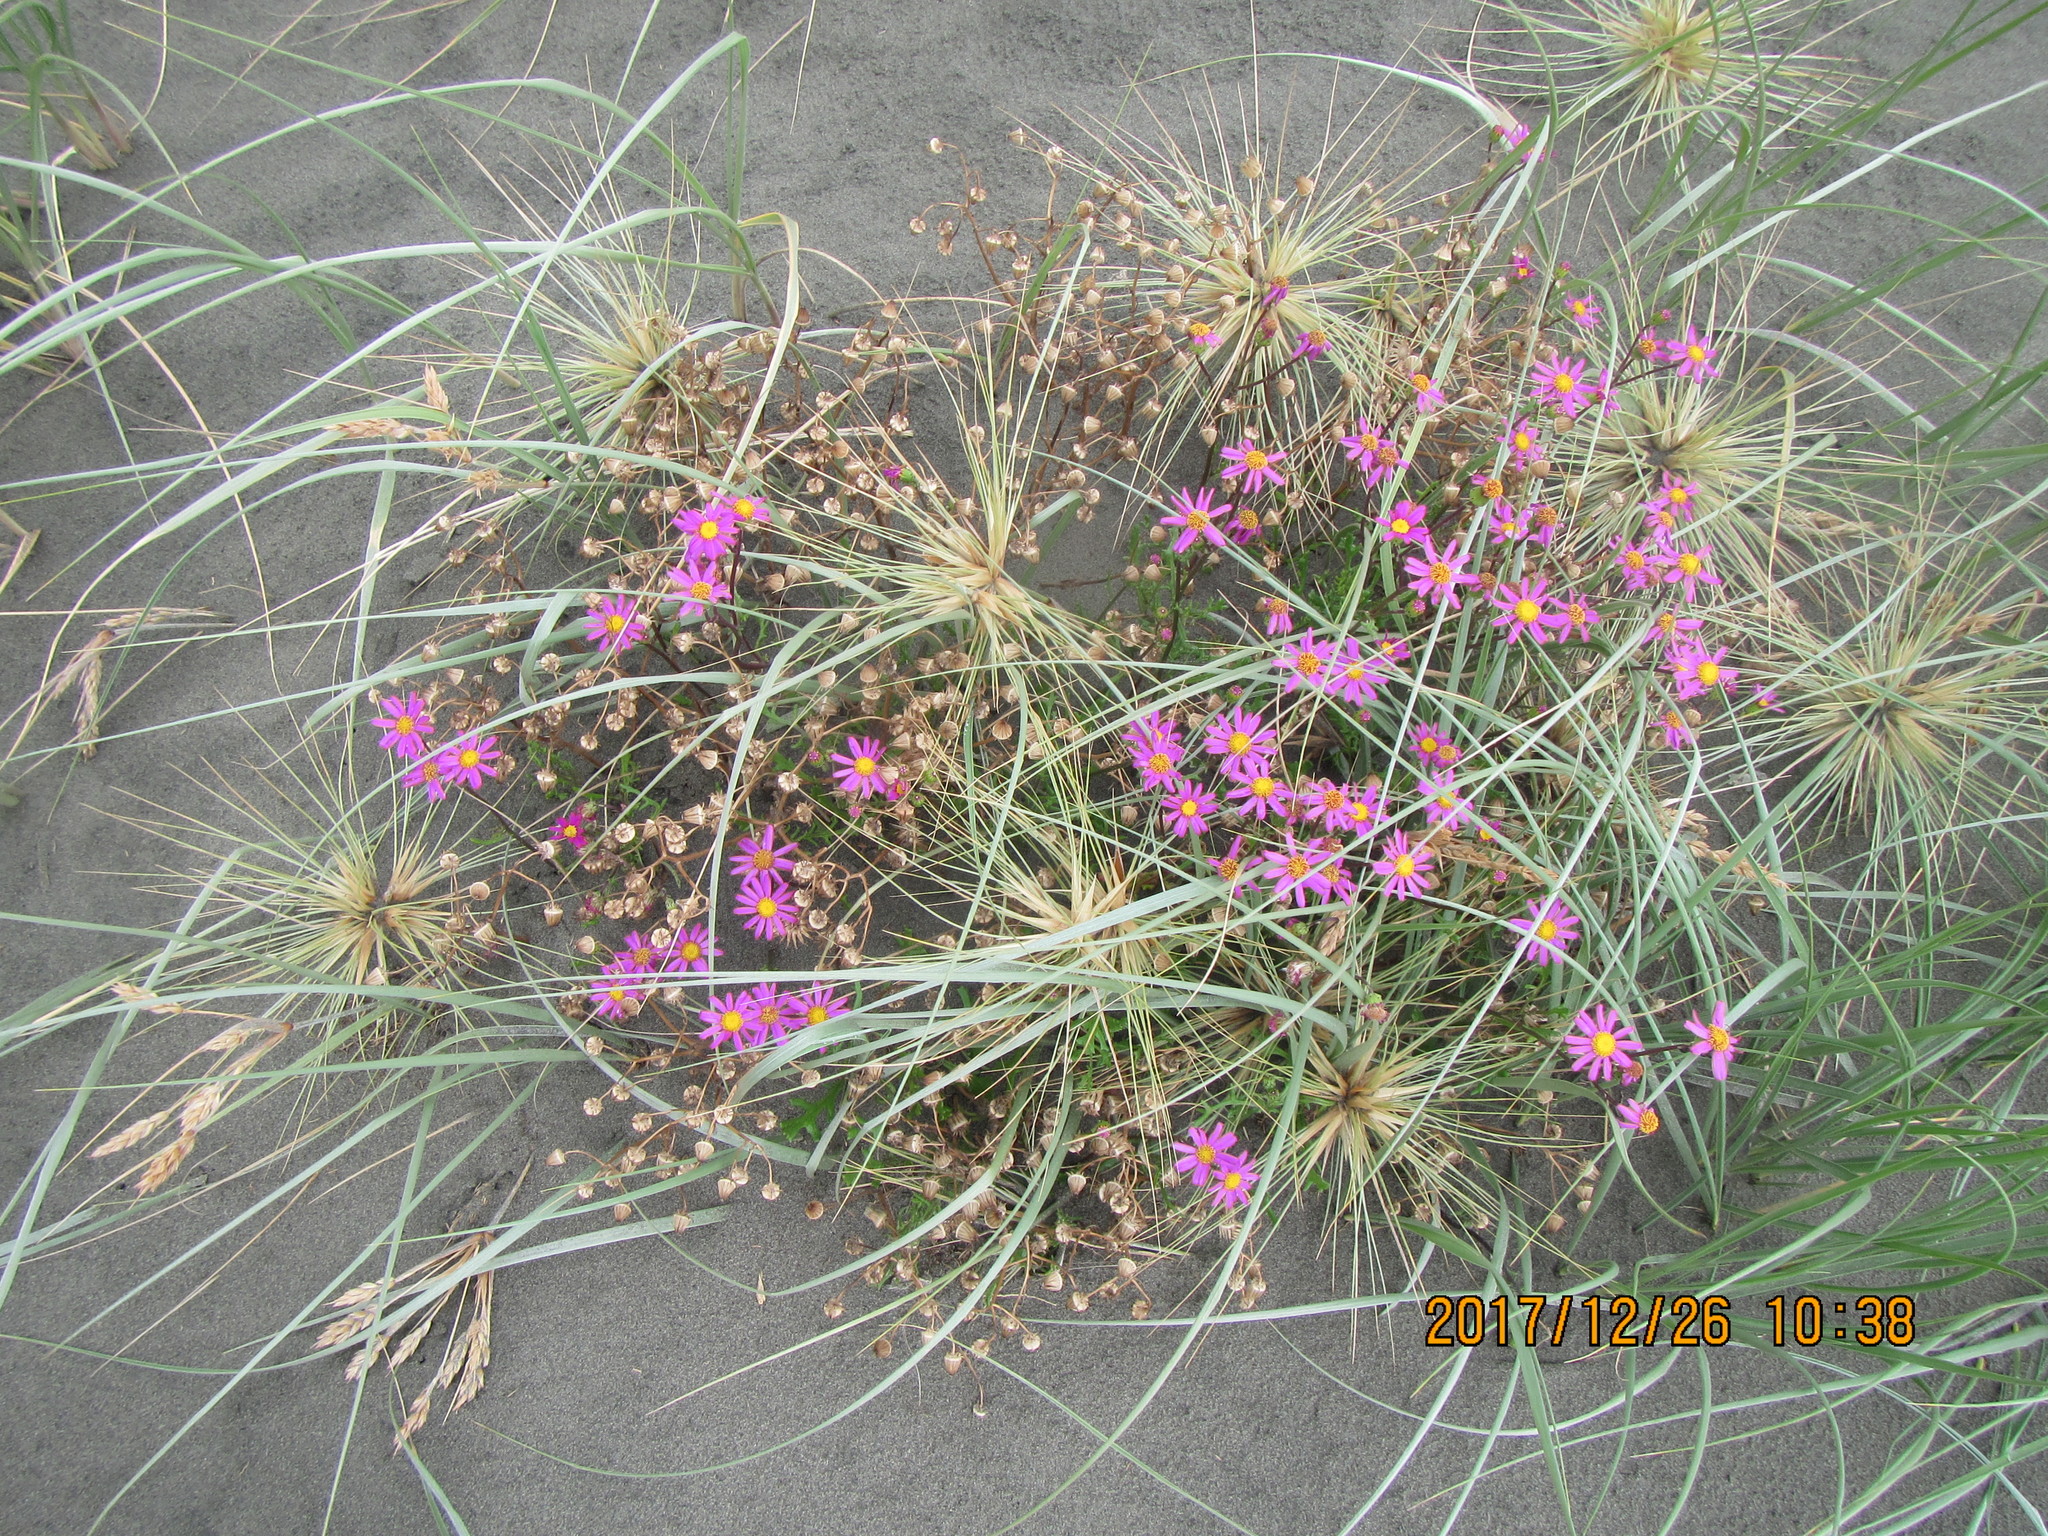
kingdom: Plantae
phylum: Tracheophyta
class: Magnoliopsida
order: Asterales
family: Asteraceae
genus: Senecio
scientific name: Senecio elegans
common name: Purple groundsel
